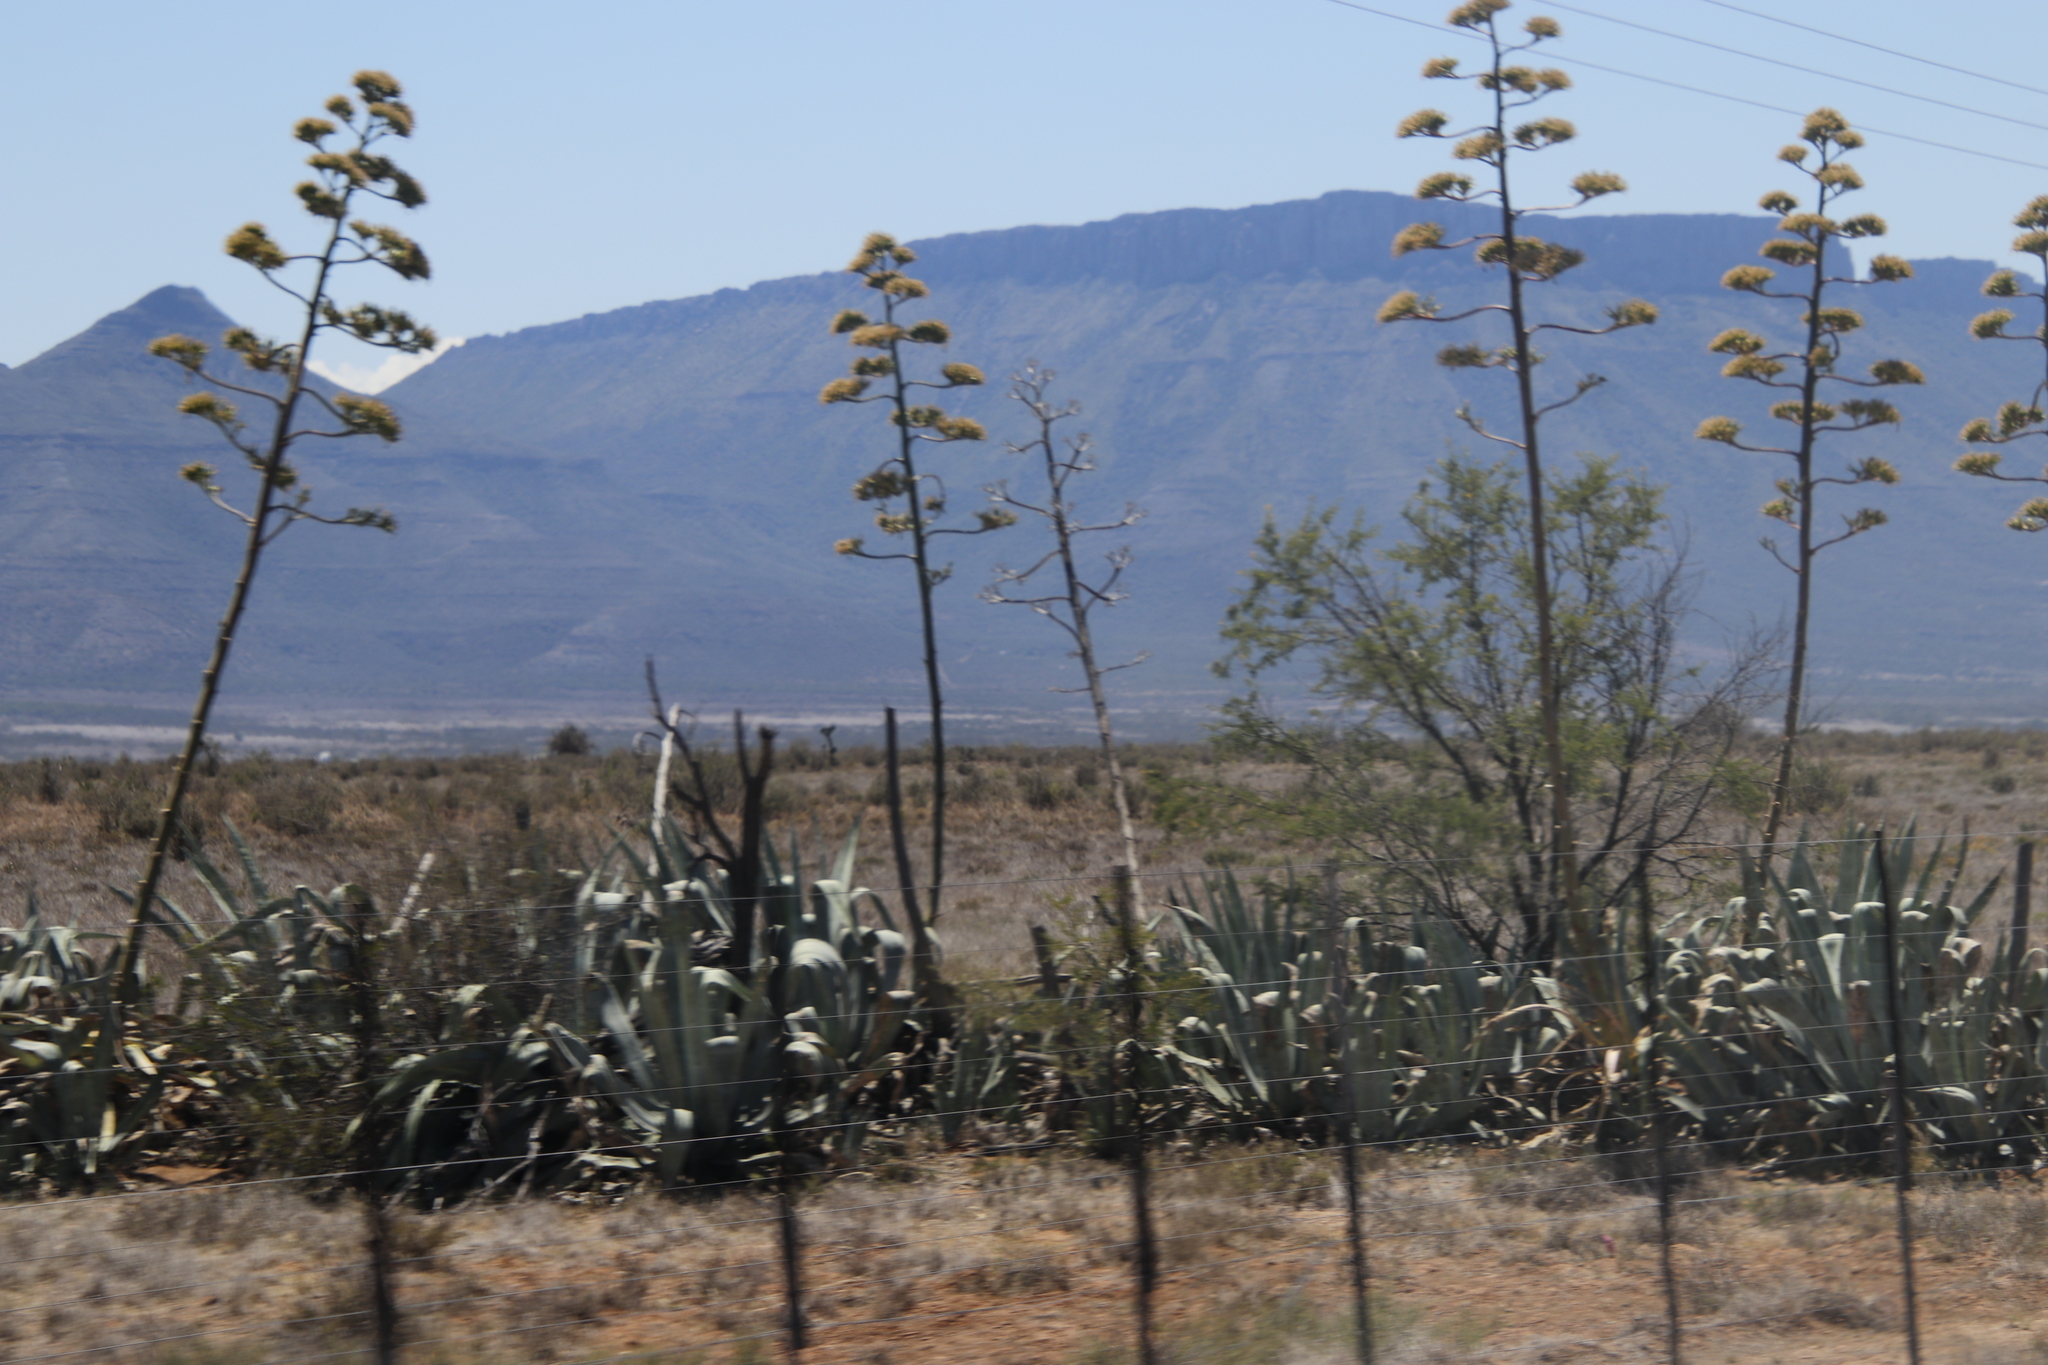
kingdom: Plantae
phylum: Tracheophyta
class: Liliopsida
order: Asparagales
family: Asparagaceae
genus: Agave
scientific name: Agave americana
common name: Centuryplant
